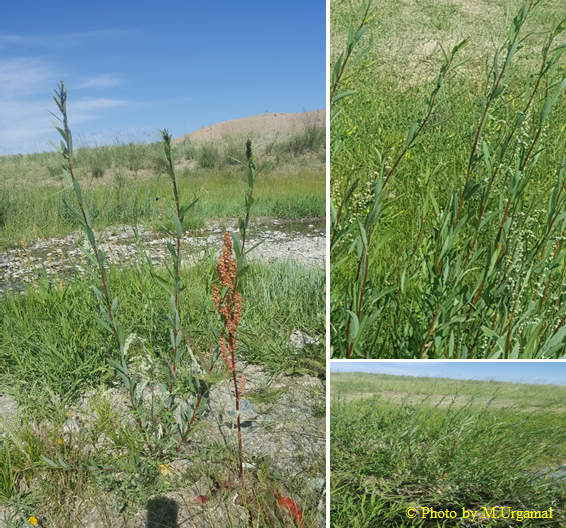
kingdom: Plantae
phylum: Tracheophyta
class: Magnoliopsida
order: Malpighiales
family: Salicaceae
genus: Salix
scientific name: Salix triandra
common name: Almond willow
